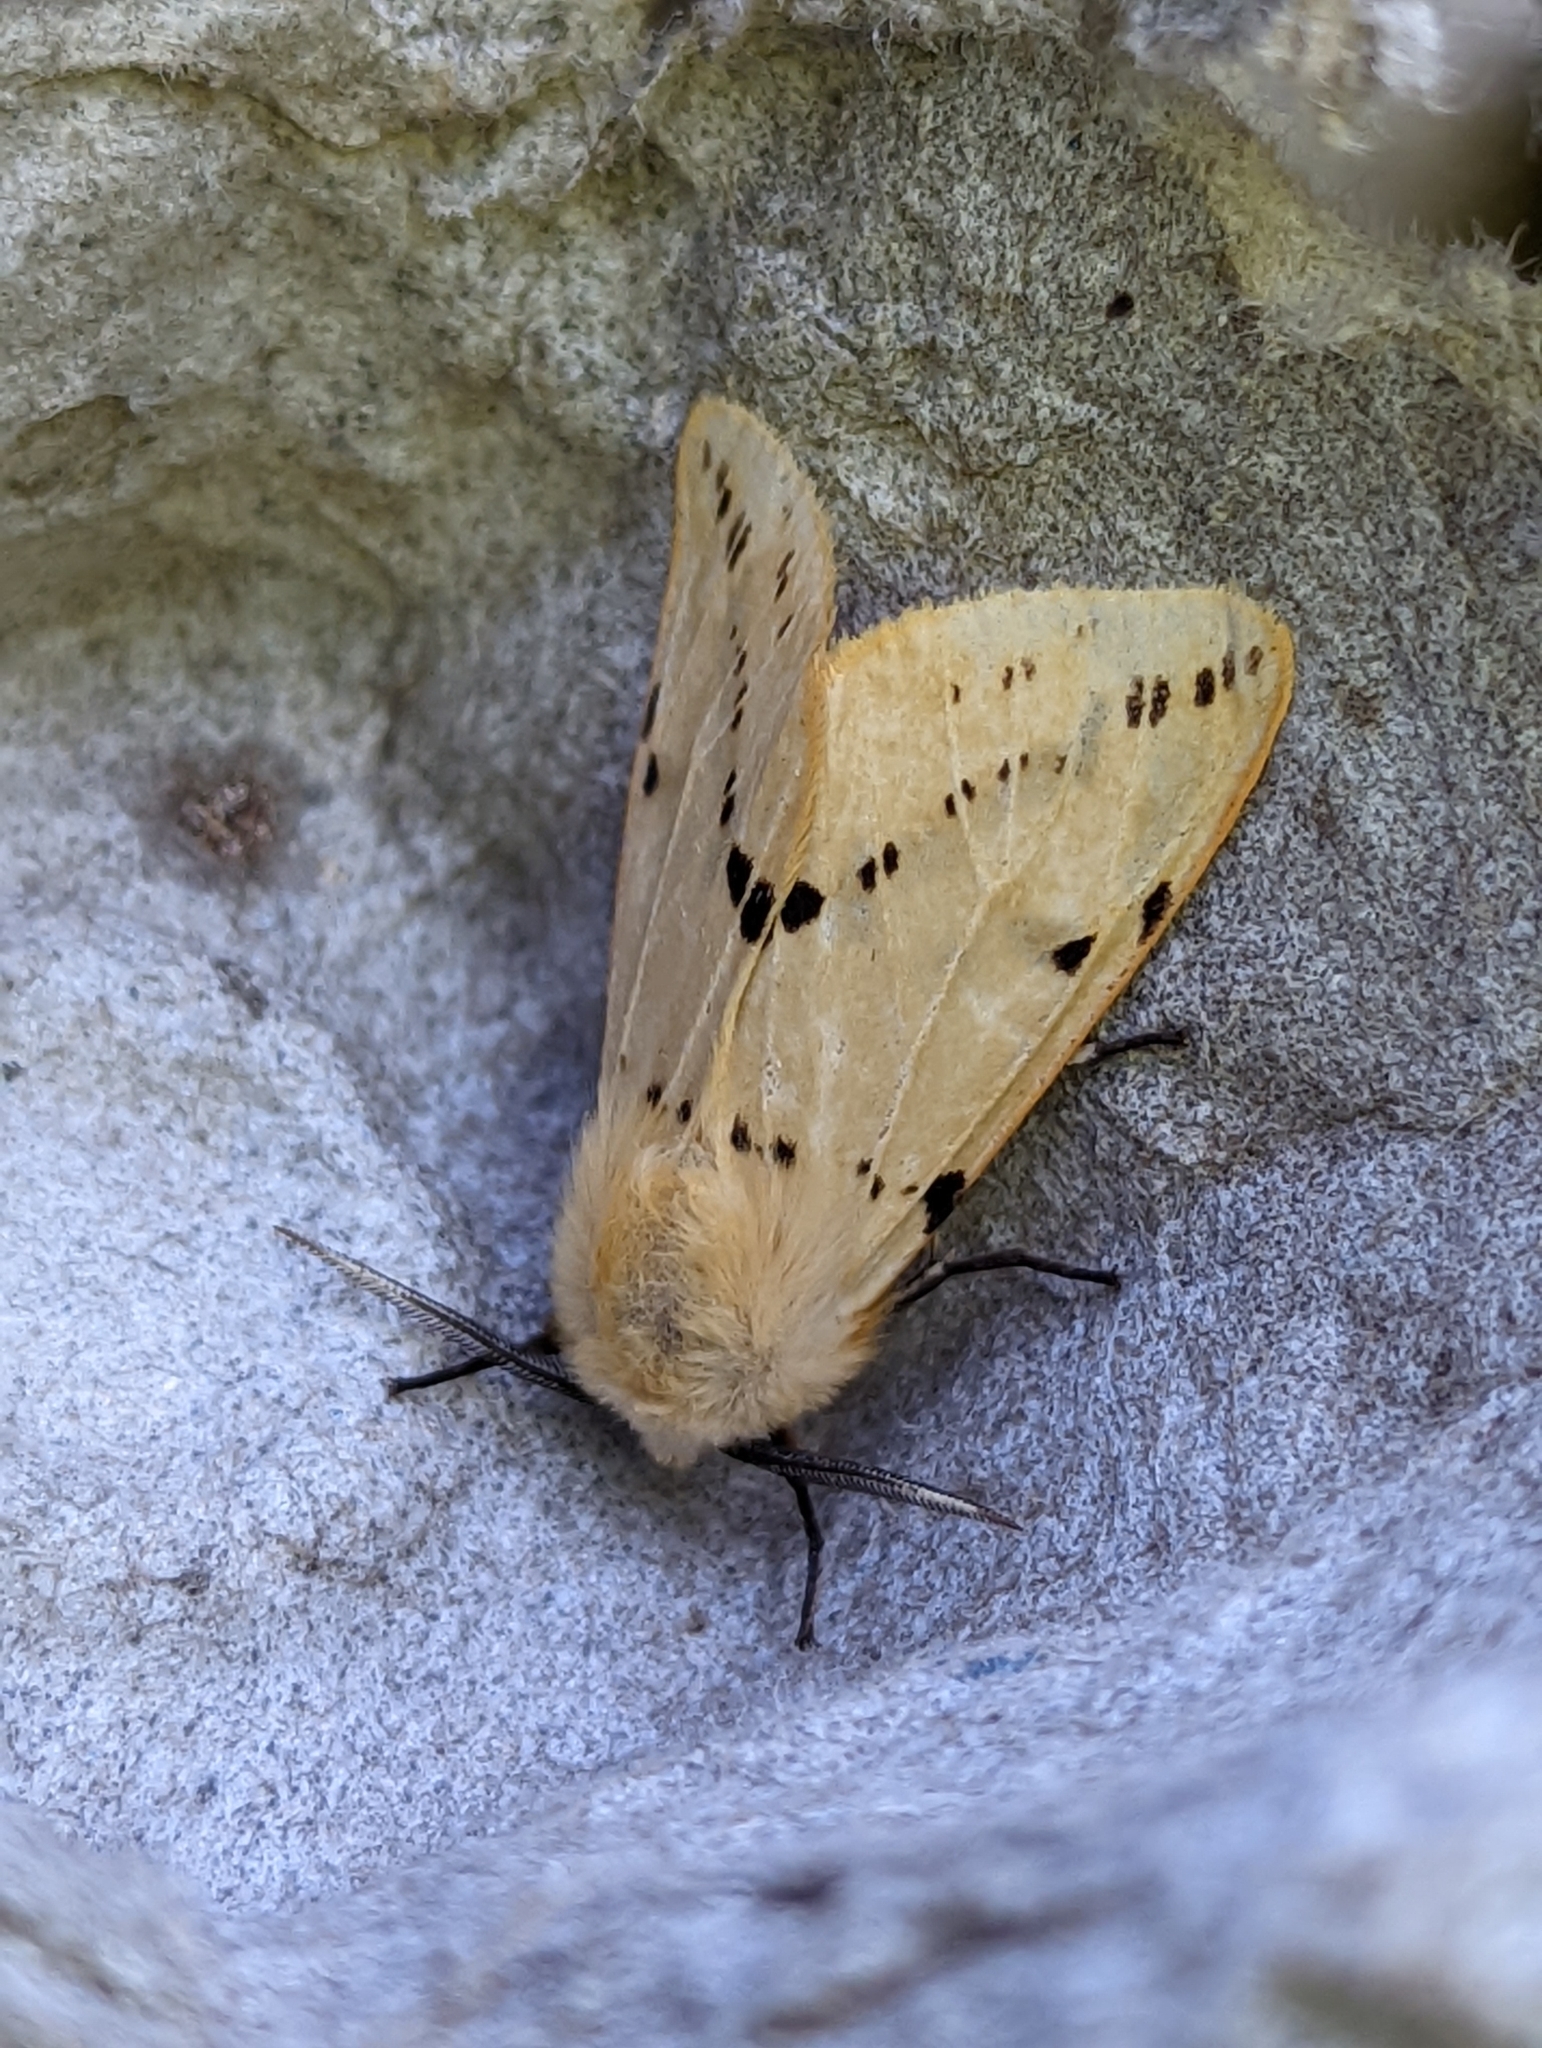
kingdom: Animalia
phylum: Arthropoda
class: Insecta
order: Lepidoptera
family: Erebidae
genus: Spilarctia
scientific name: Spilarctia lutea
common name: Buff ermine
